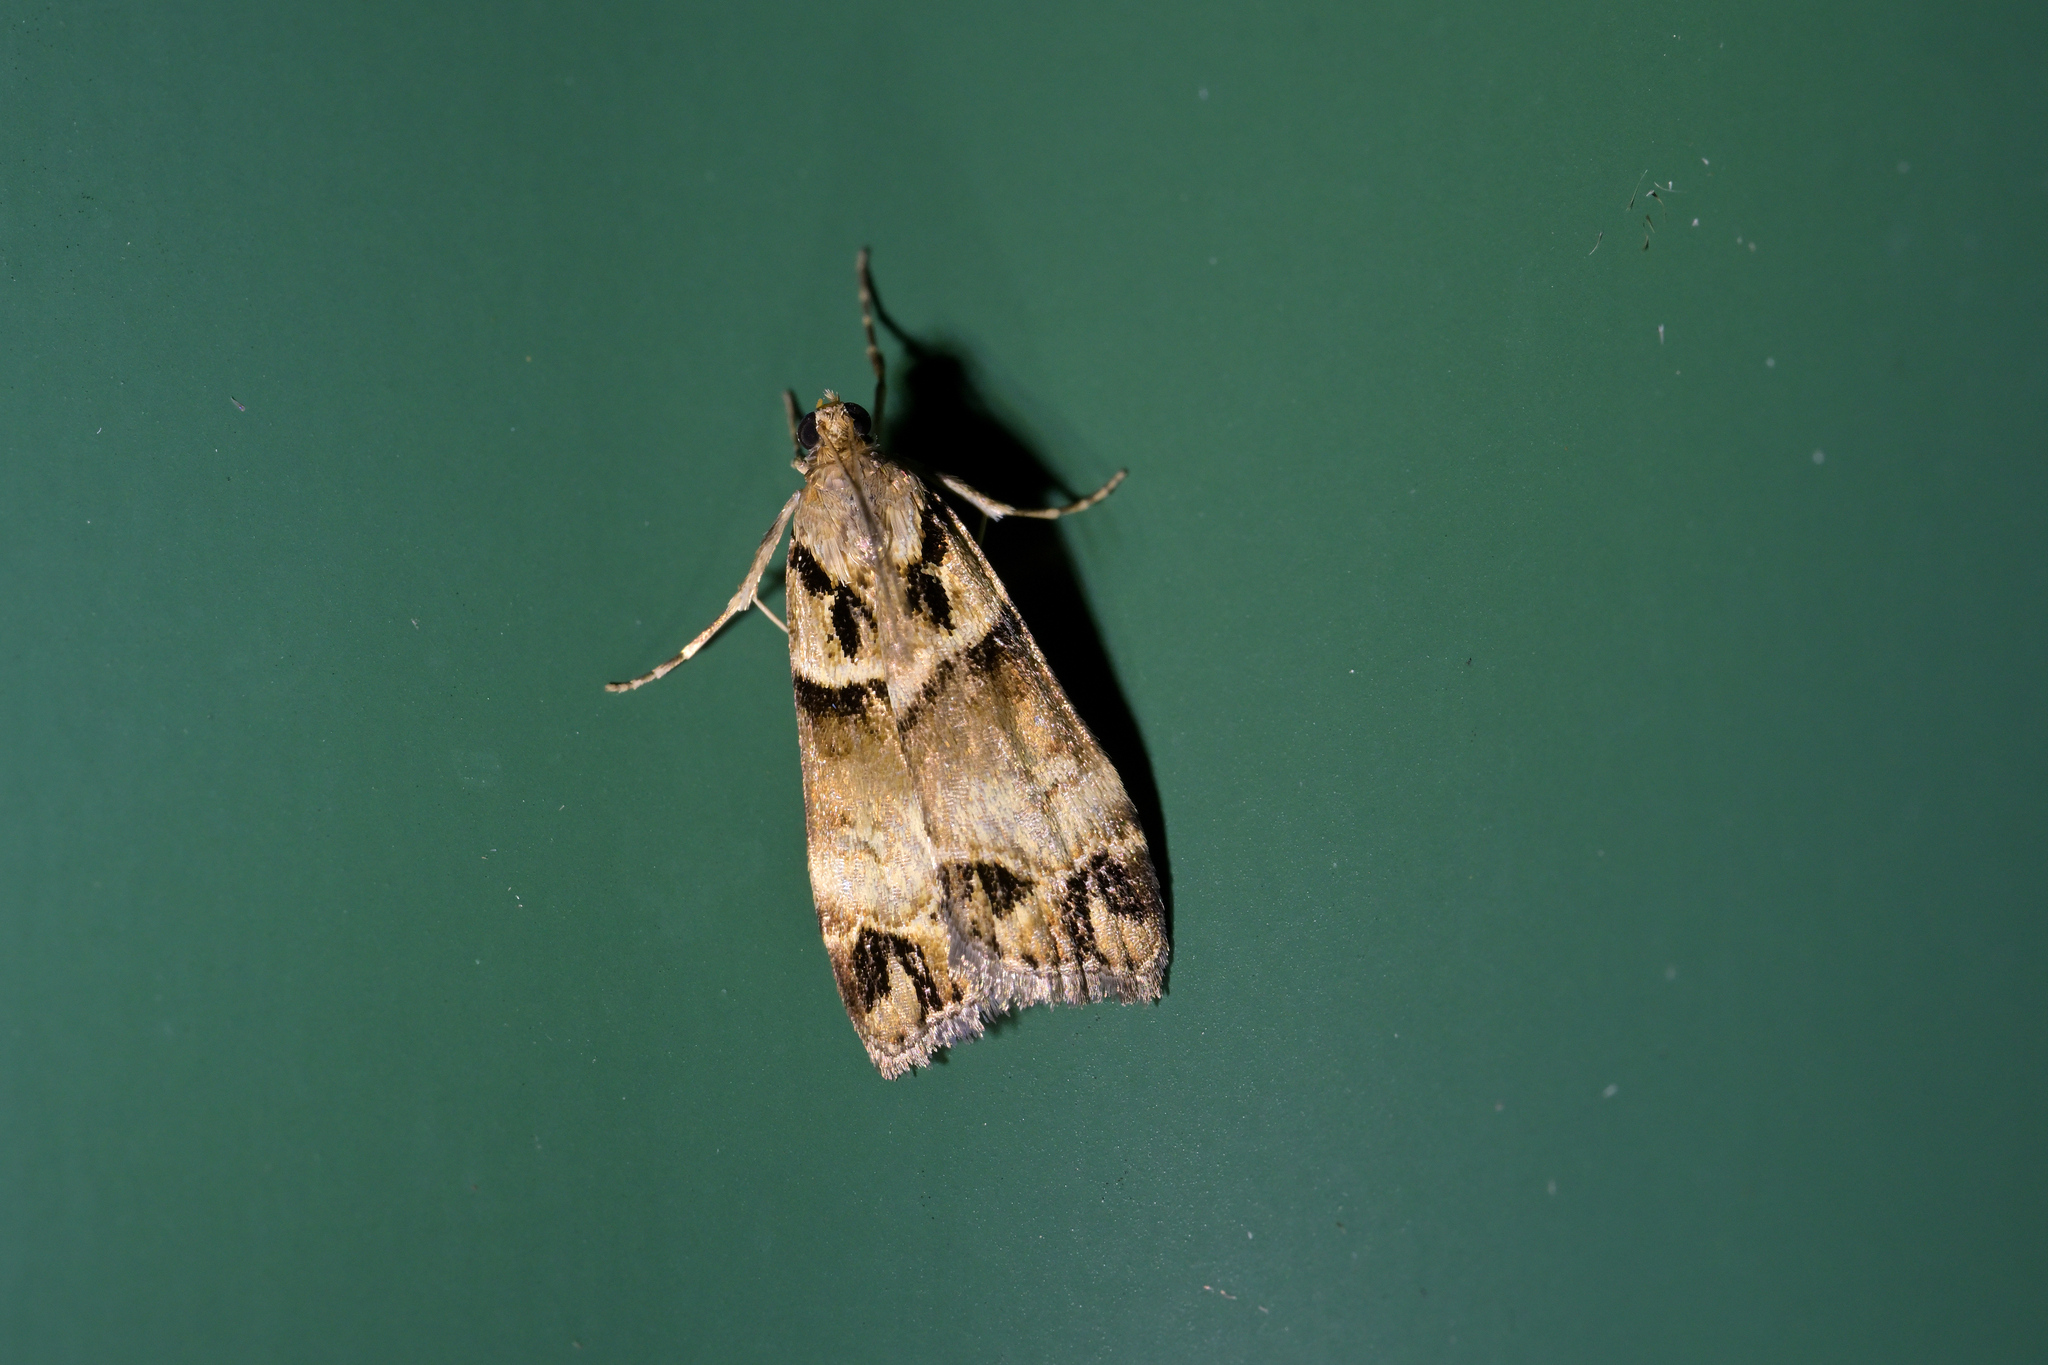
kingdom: Animalia
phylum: Arthropoda
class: Insecta
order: Lepidoptera
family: Crambidae
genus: Eudonia
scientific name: Eudonia periphanes
